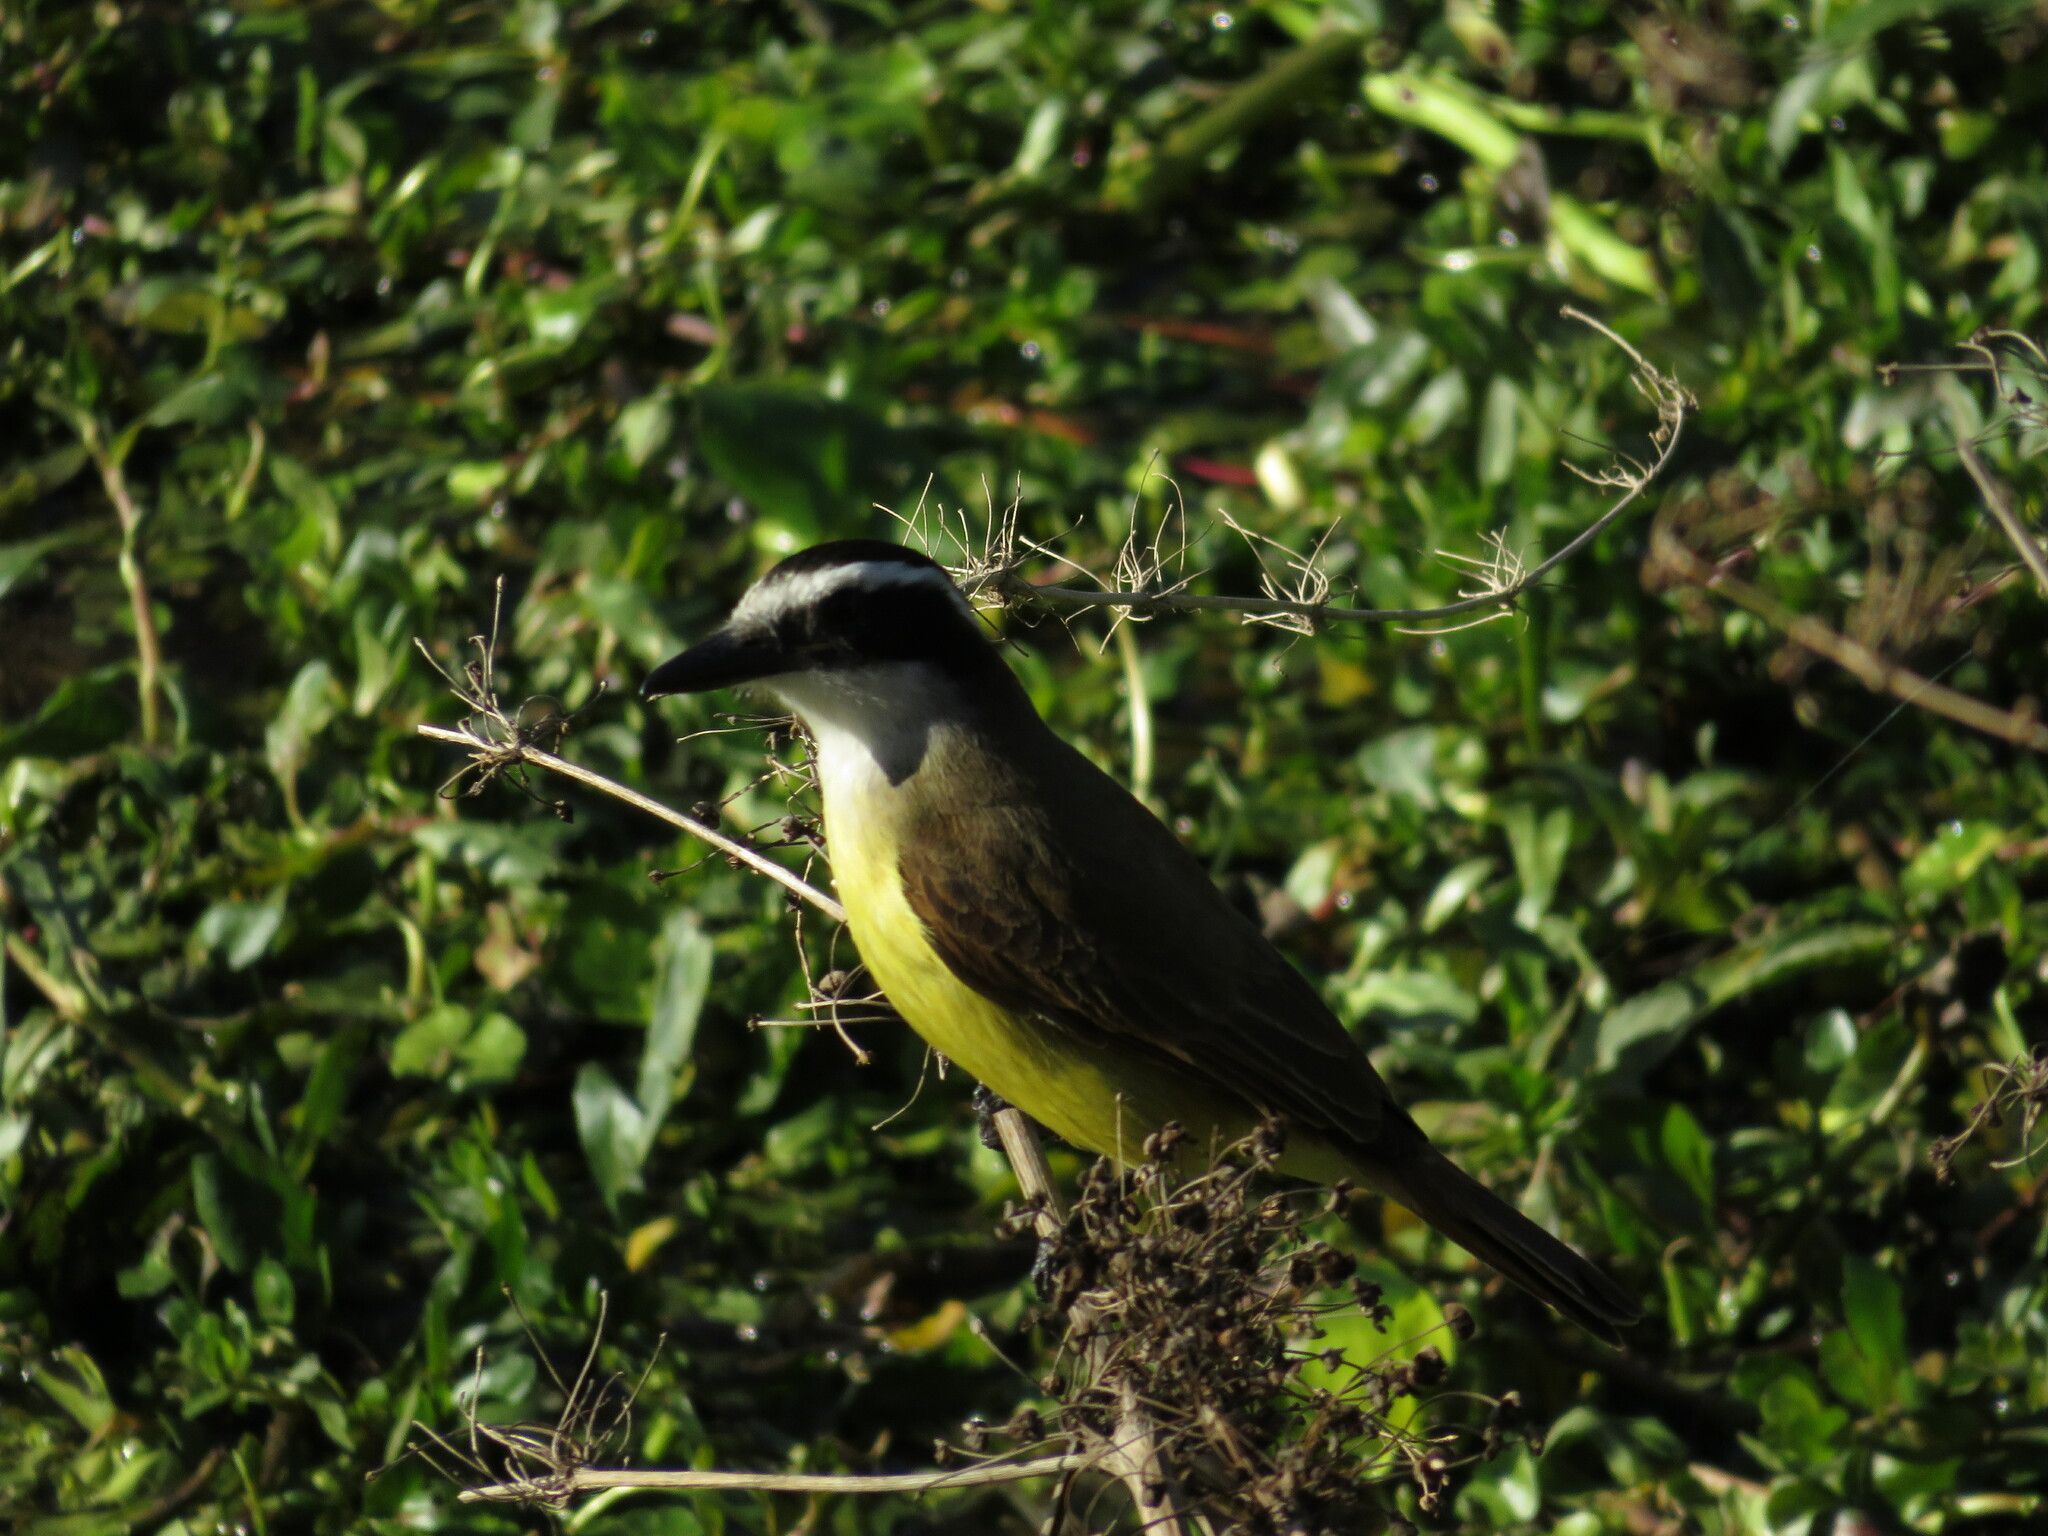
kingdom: Animalia
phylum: Chordata
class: Aves
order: Passeriformes
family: Tyrannidae
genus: Pitangus
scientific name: Pitangus sulphuratus
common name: Great kiskadee
